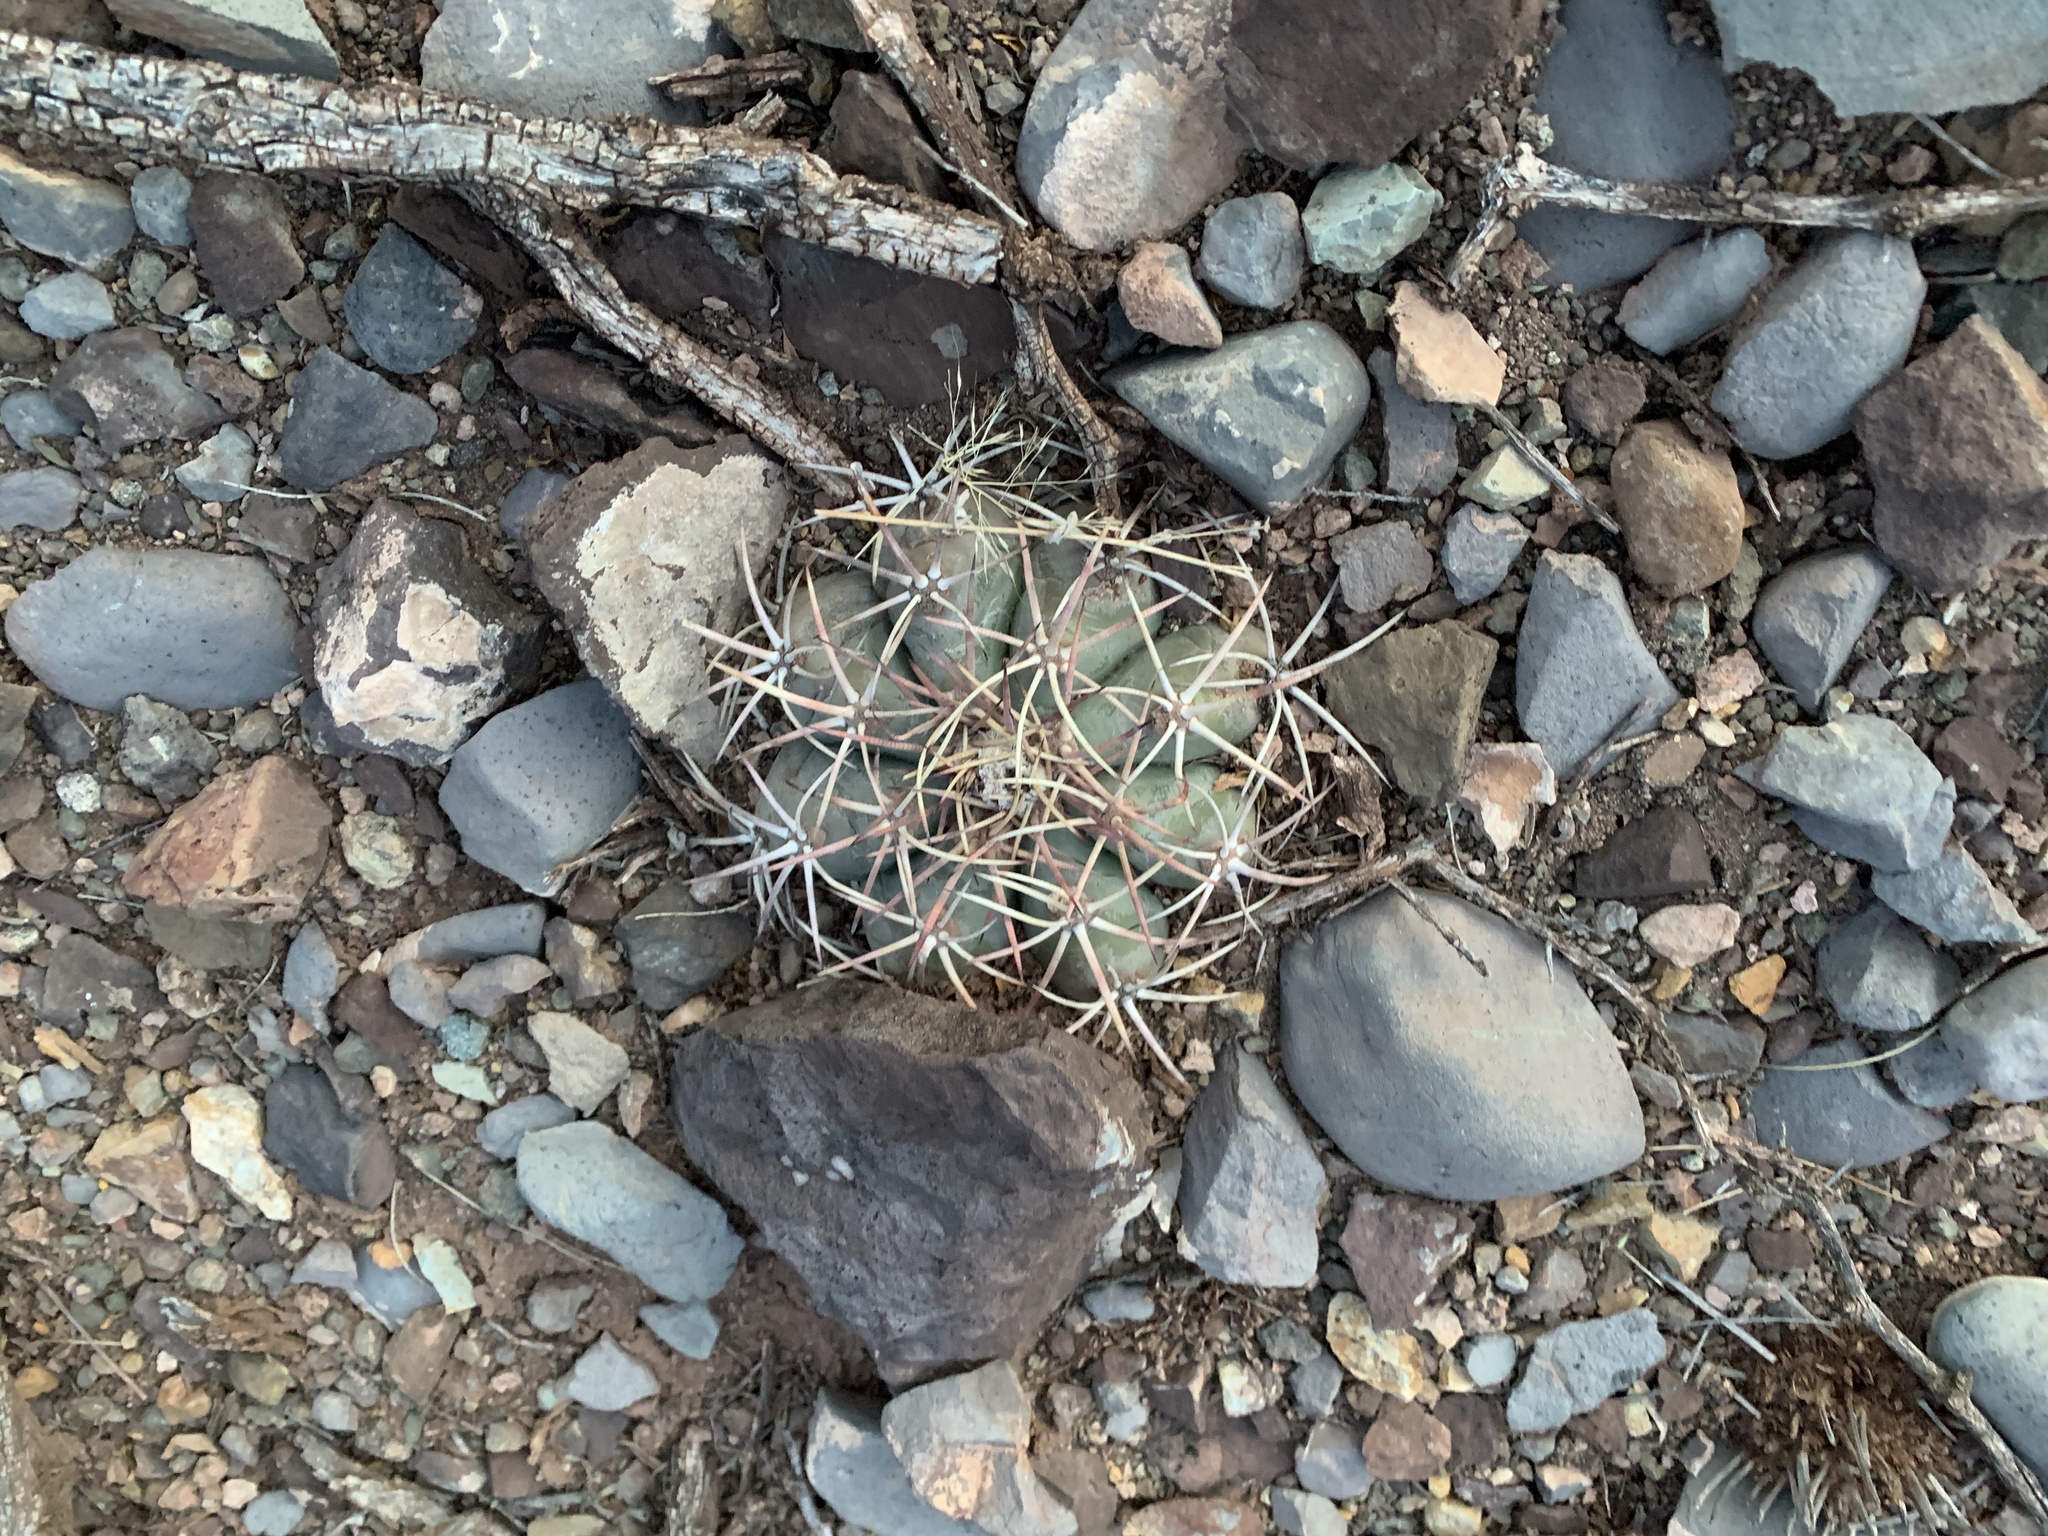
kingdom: Plantae
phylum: Tracheophyta
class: Magnoliopsida
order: Caryophyllales
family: Cactaceae
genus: Echinocactus
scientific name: Echinocactus horizonthalonius
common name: Devilshead
